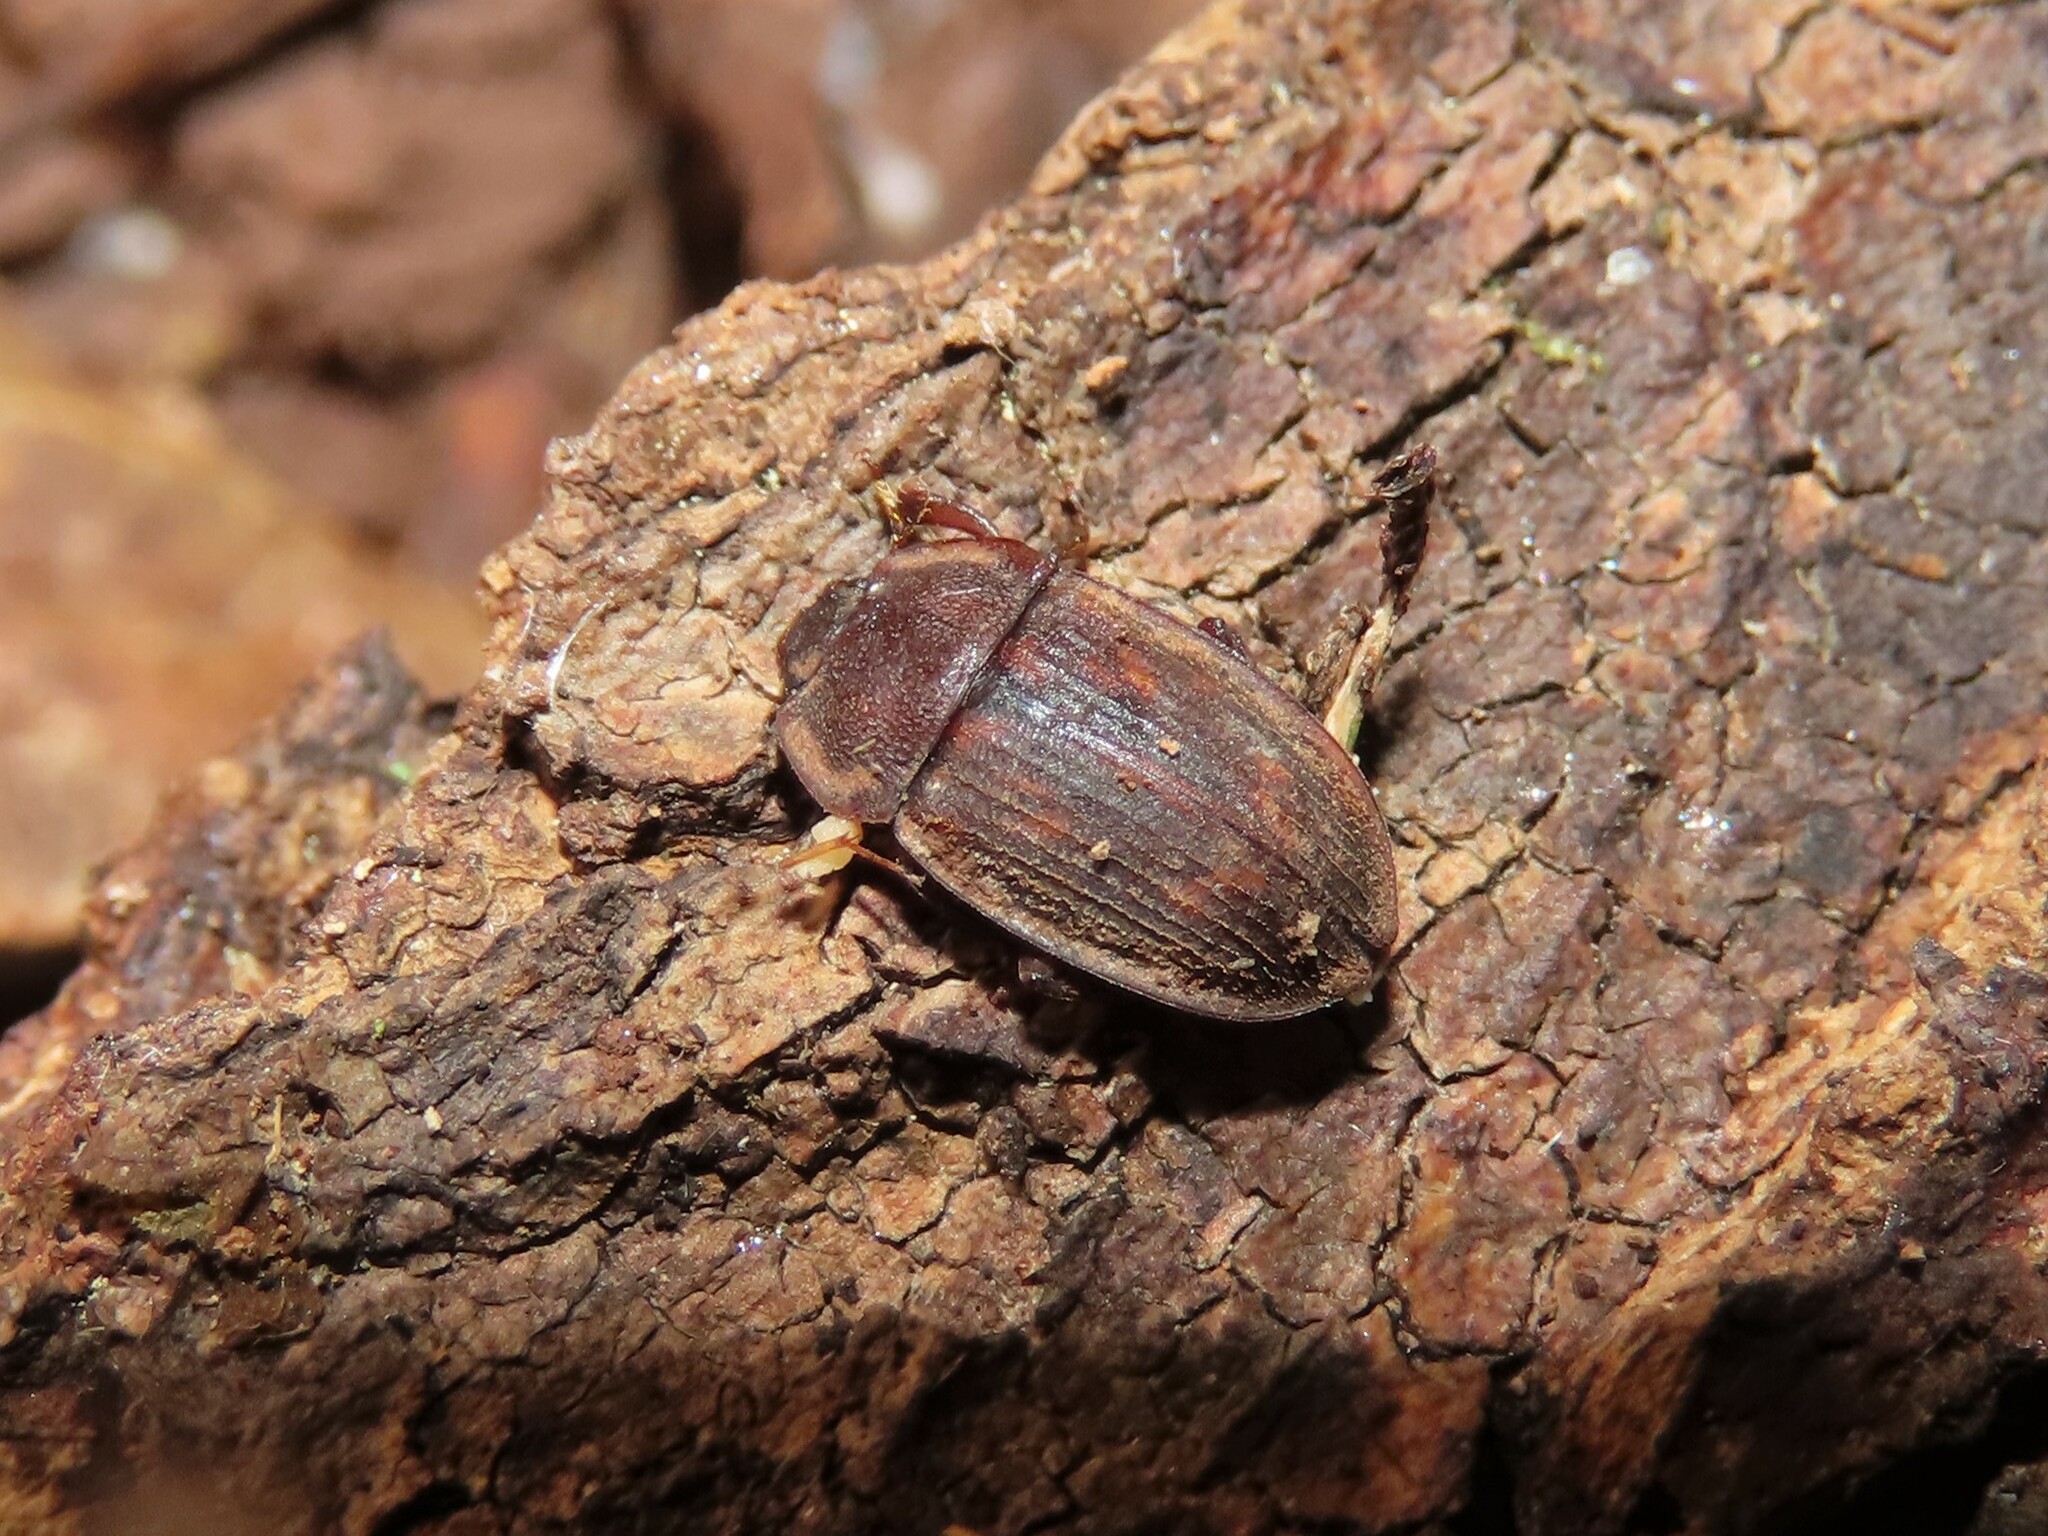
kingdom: Animalia
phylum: Arthropoda
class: Insecta
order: Coleoptera
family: Nitidulidae
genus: Phenolia
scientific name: Phenolia grossa
